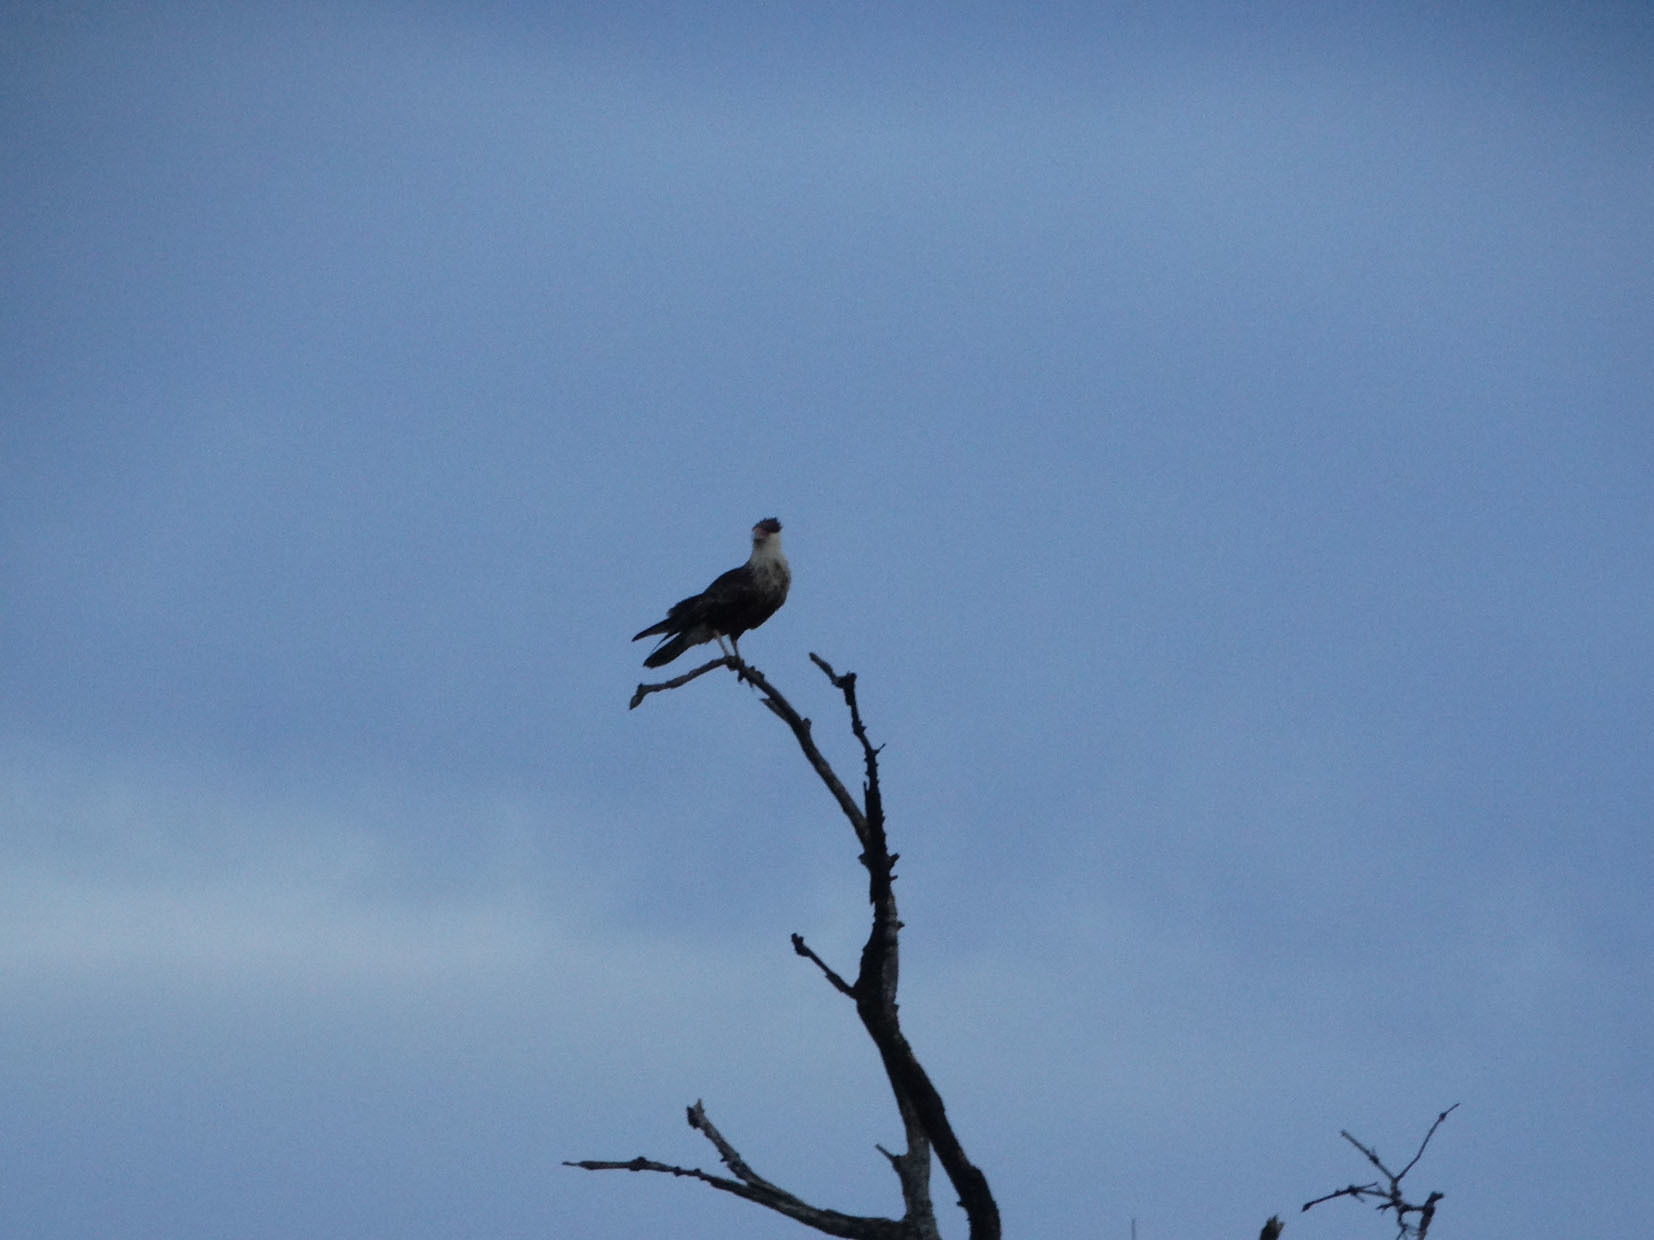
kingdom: Animalia
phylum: Chordata
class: Aves
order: Falconiformes
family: Falconidae
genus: Caracara
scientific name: Caracara plancus
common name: Southern caracara
